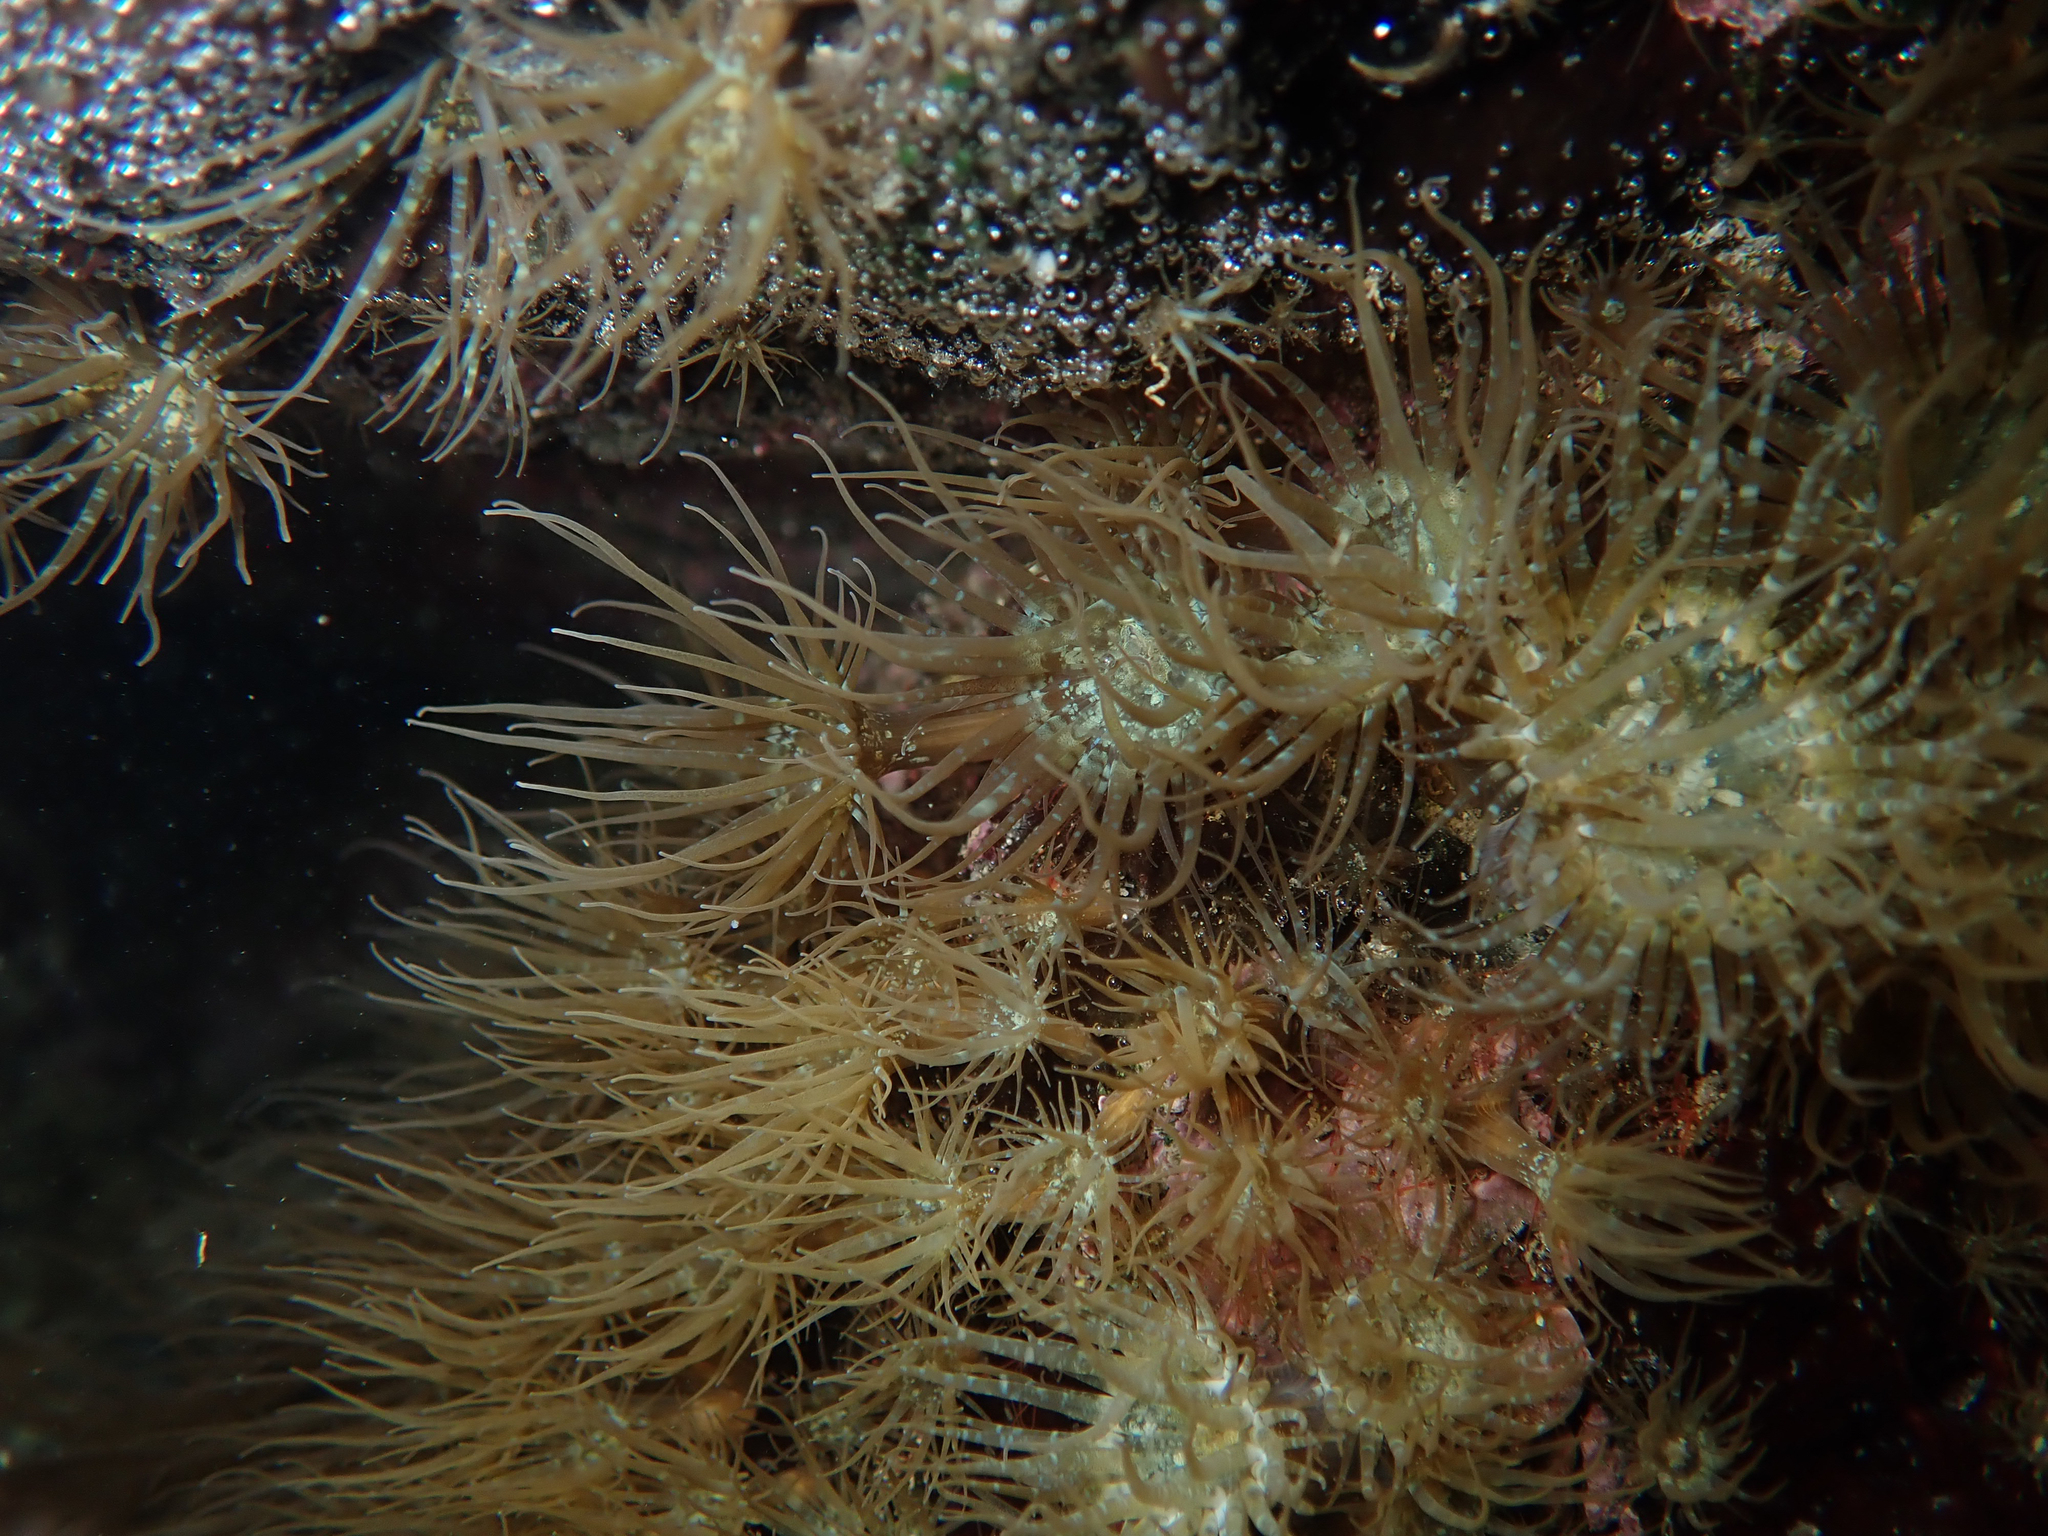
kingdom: Animalia
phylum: Cnidaria
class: Anthozoa
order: Actiniaria
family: Aiptasiidae
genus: Exaiptasia
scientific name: Exaiptasia diaphana
